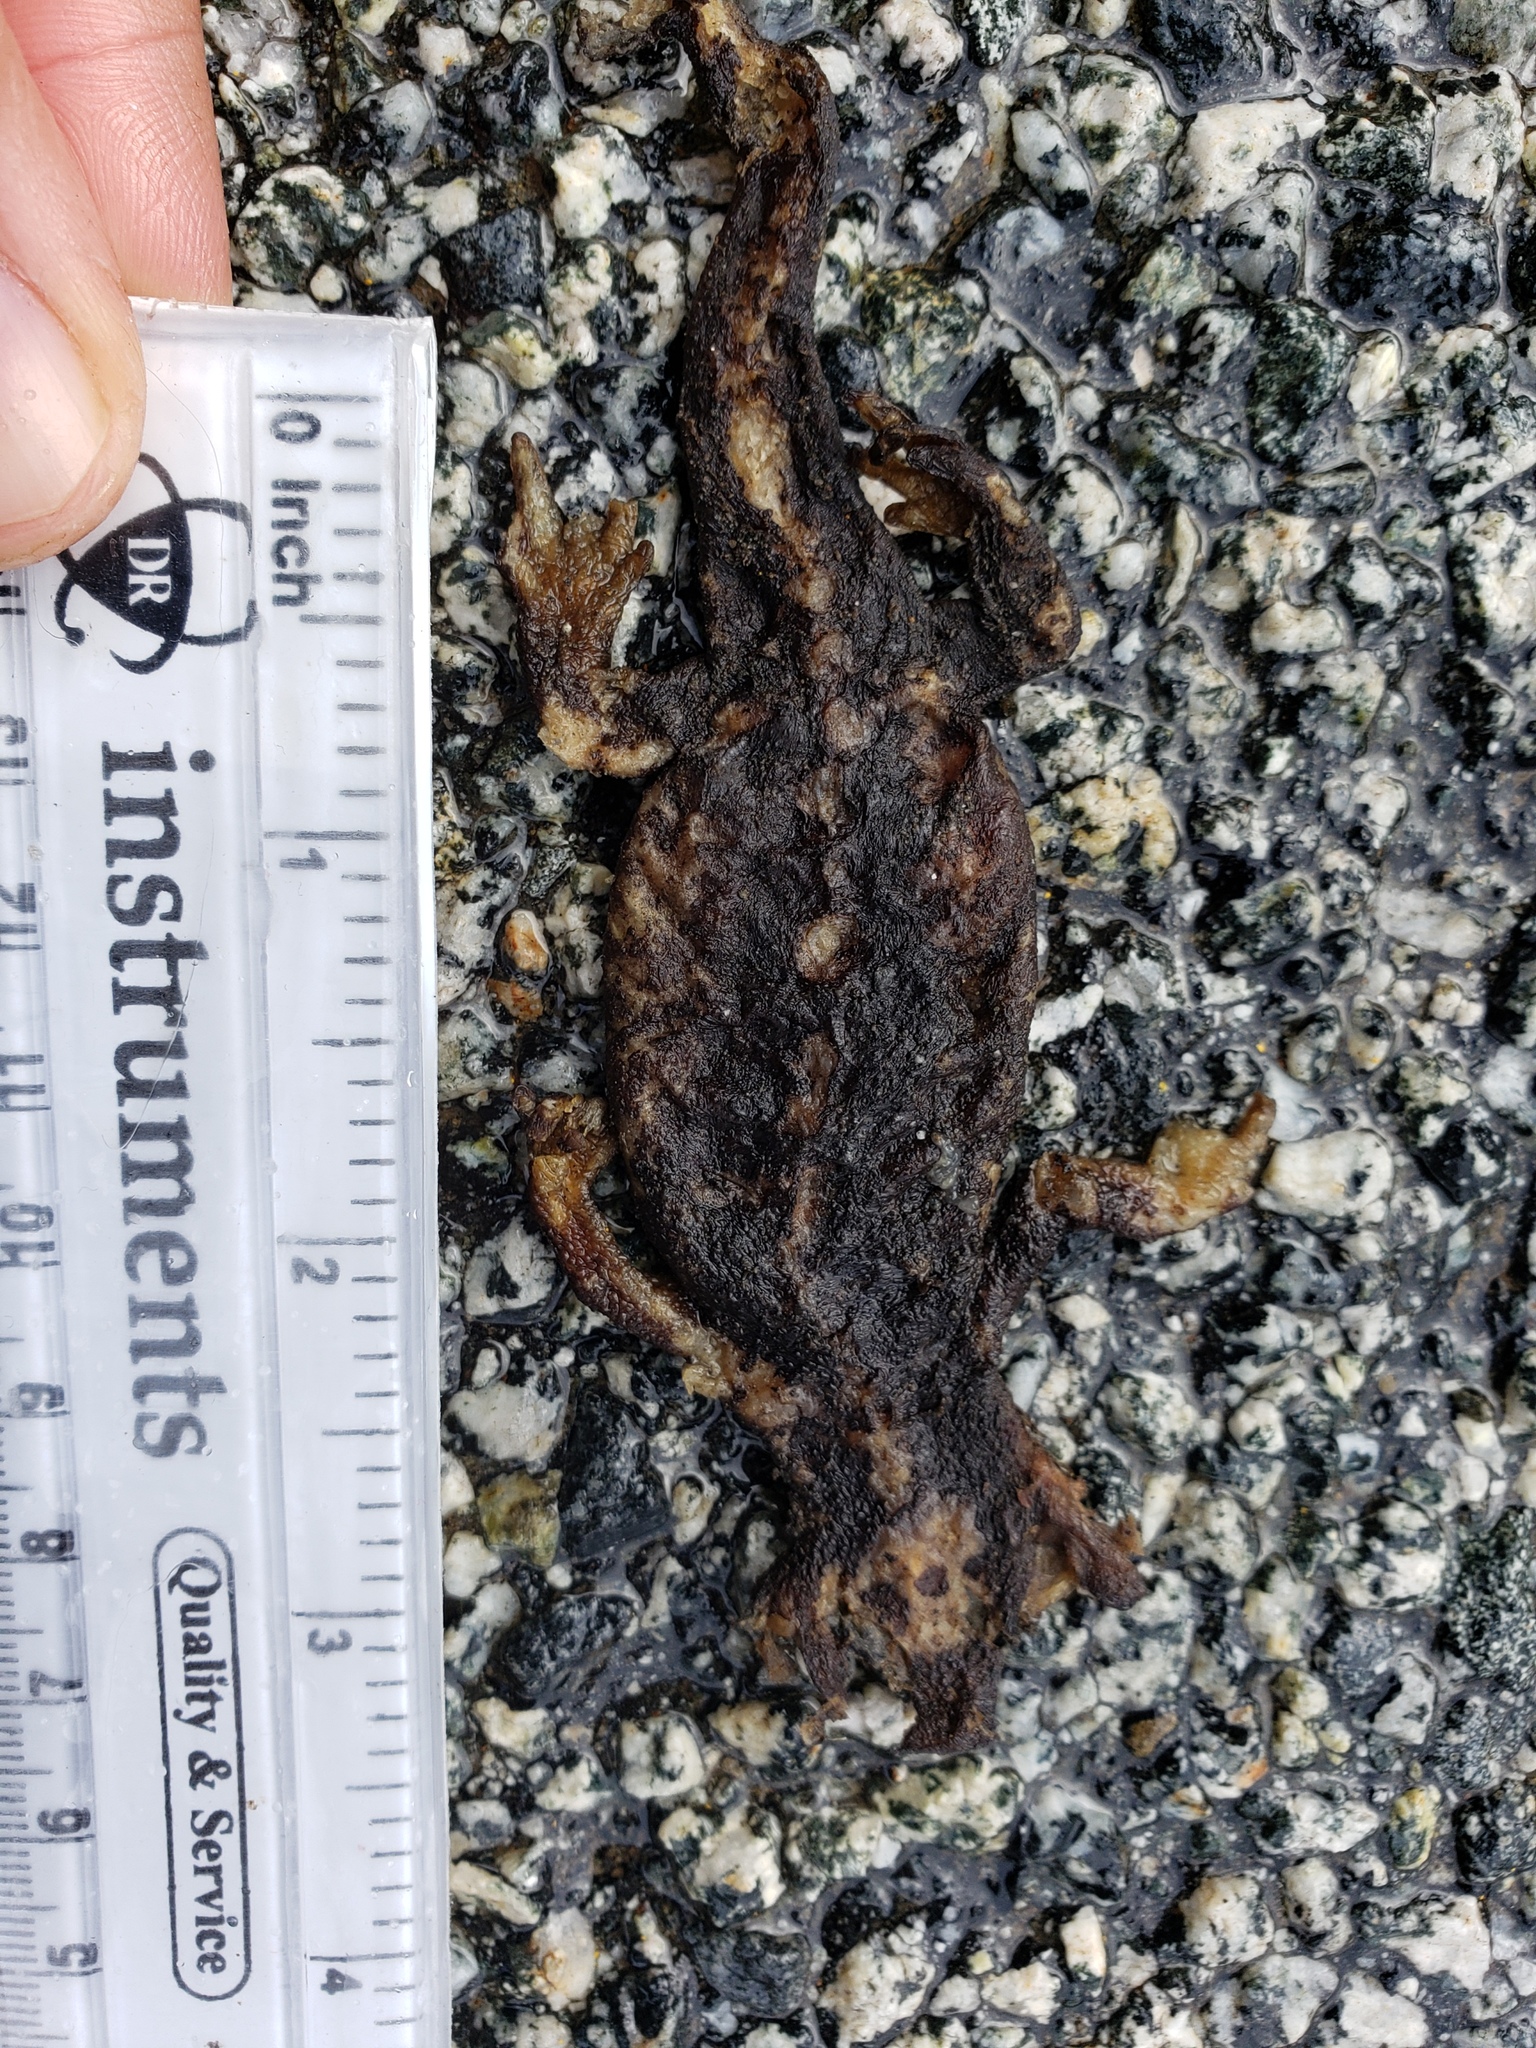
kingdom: Animalia
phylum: Chordata
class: Amphibia
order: Caudata
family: Salamandridae
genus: Taricha
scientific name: Taricha
